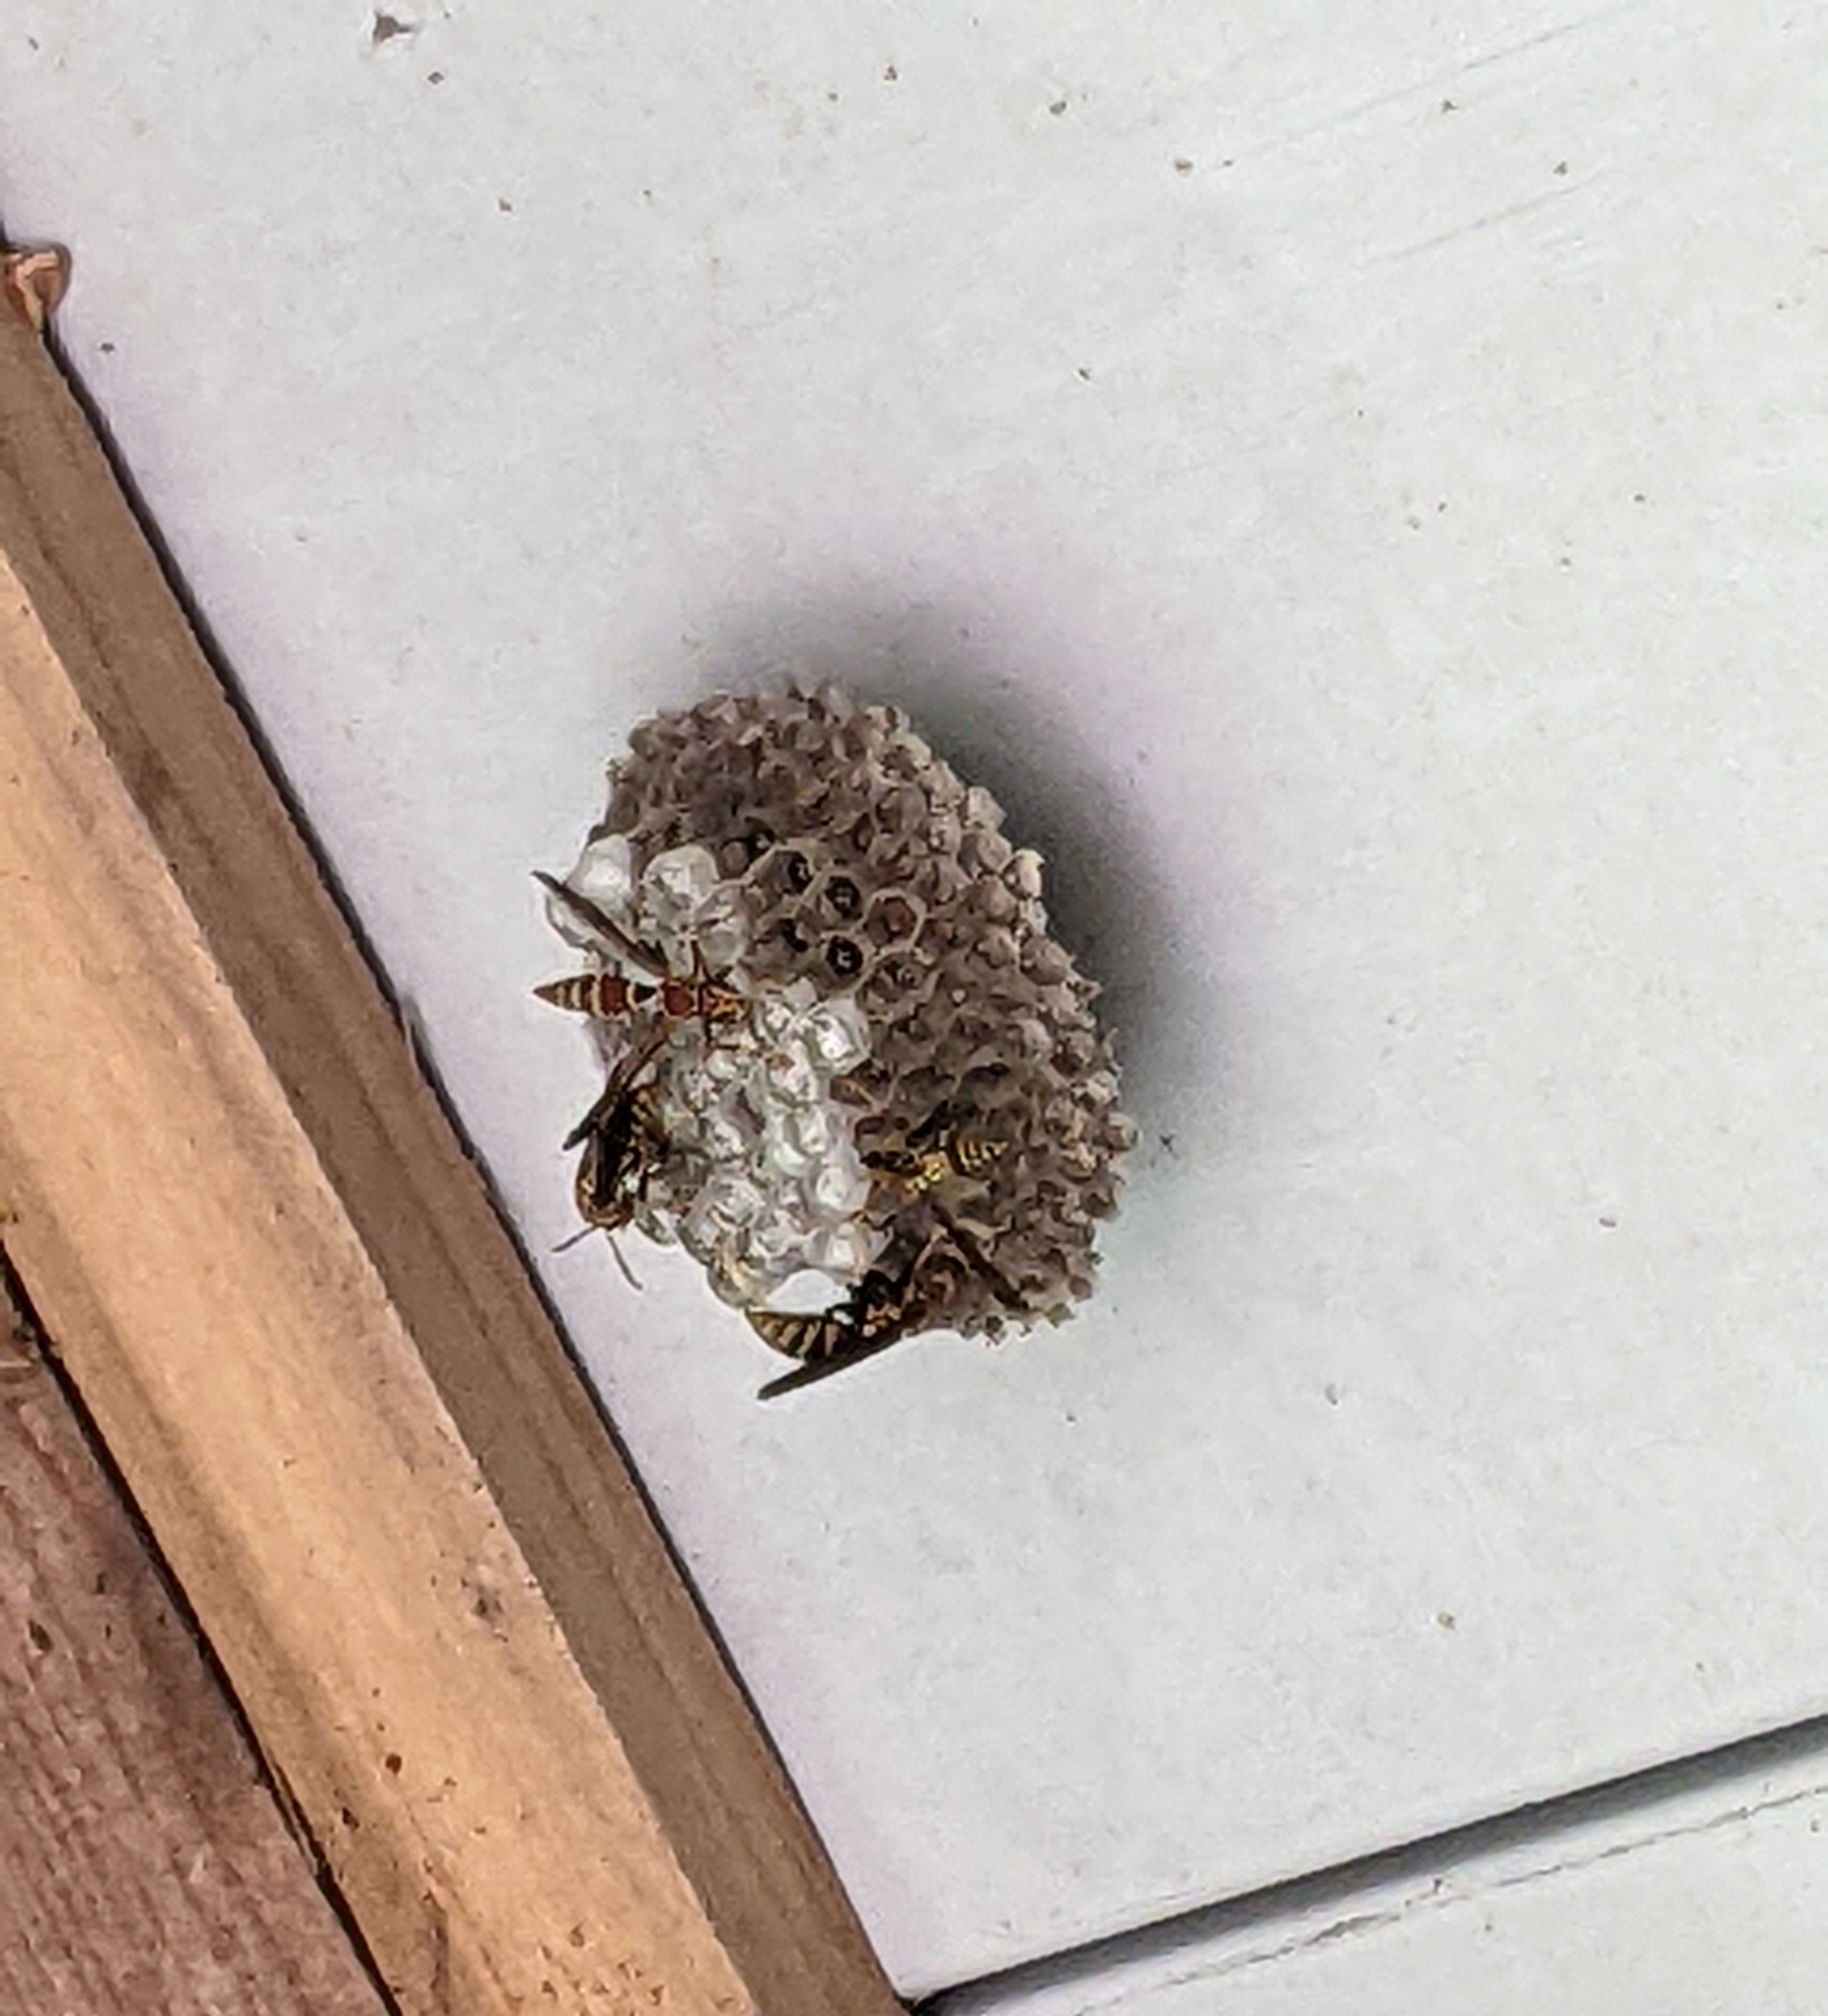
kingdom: Animalia
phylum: Arthropoda
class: Insecta
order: Hymenoptera
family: Eumenidae
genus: Polistes
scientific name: Polistes exclamans
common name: Paper wasp
